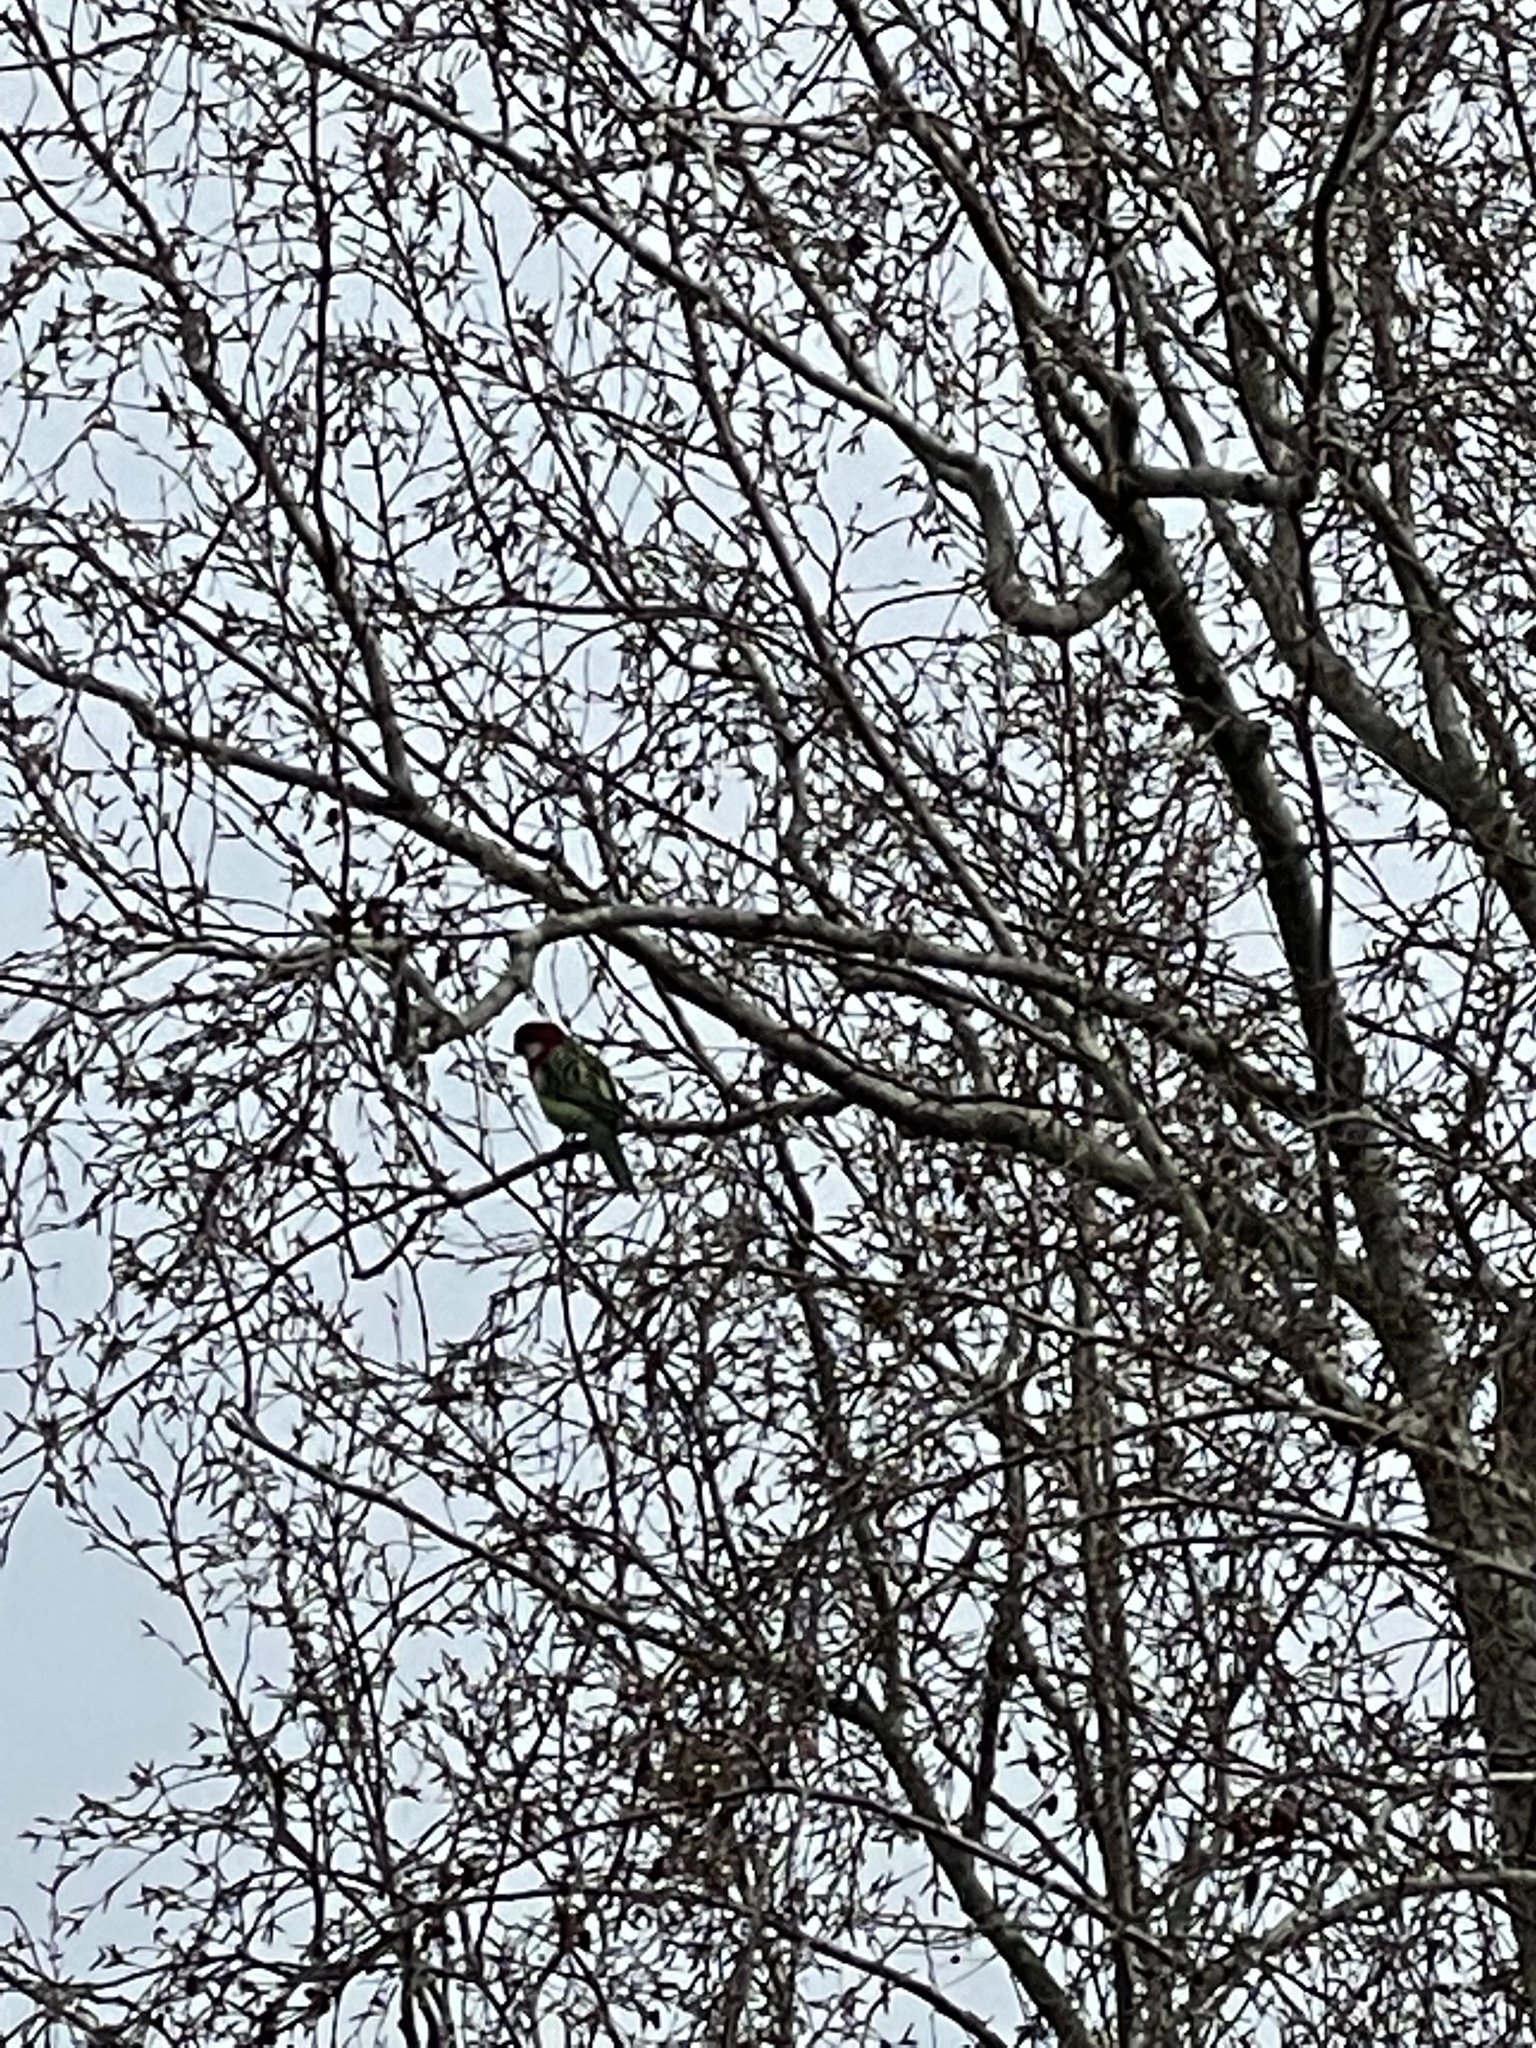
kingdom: Animalia
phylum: Chordata
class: Aves
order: Psittaciformes
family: Psittacidae
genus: Platycercus
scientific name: Platycercus eximius
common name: Eastern rosella
